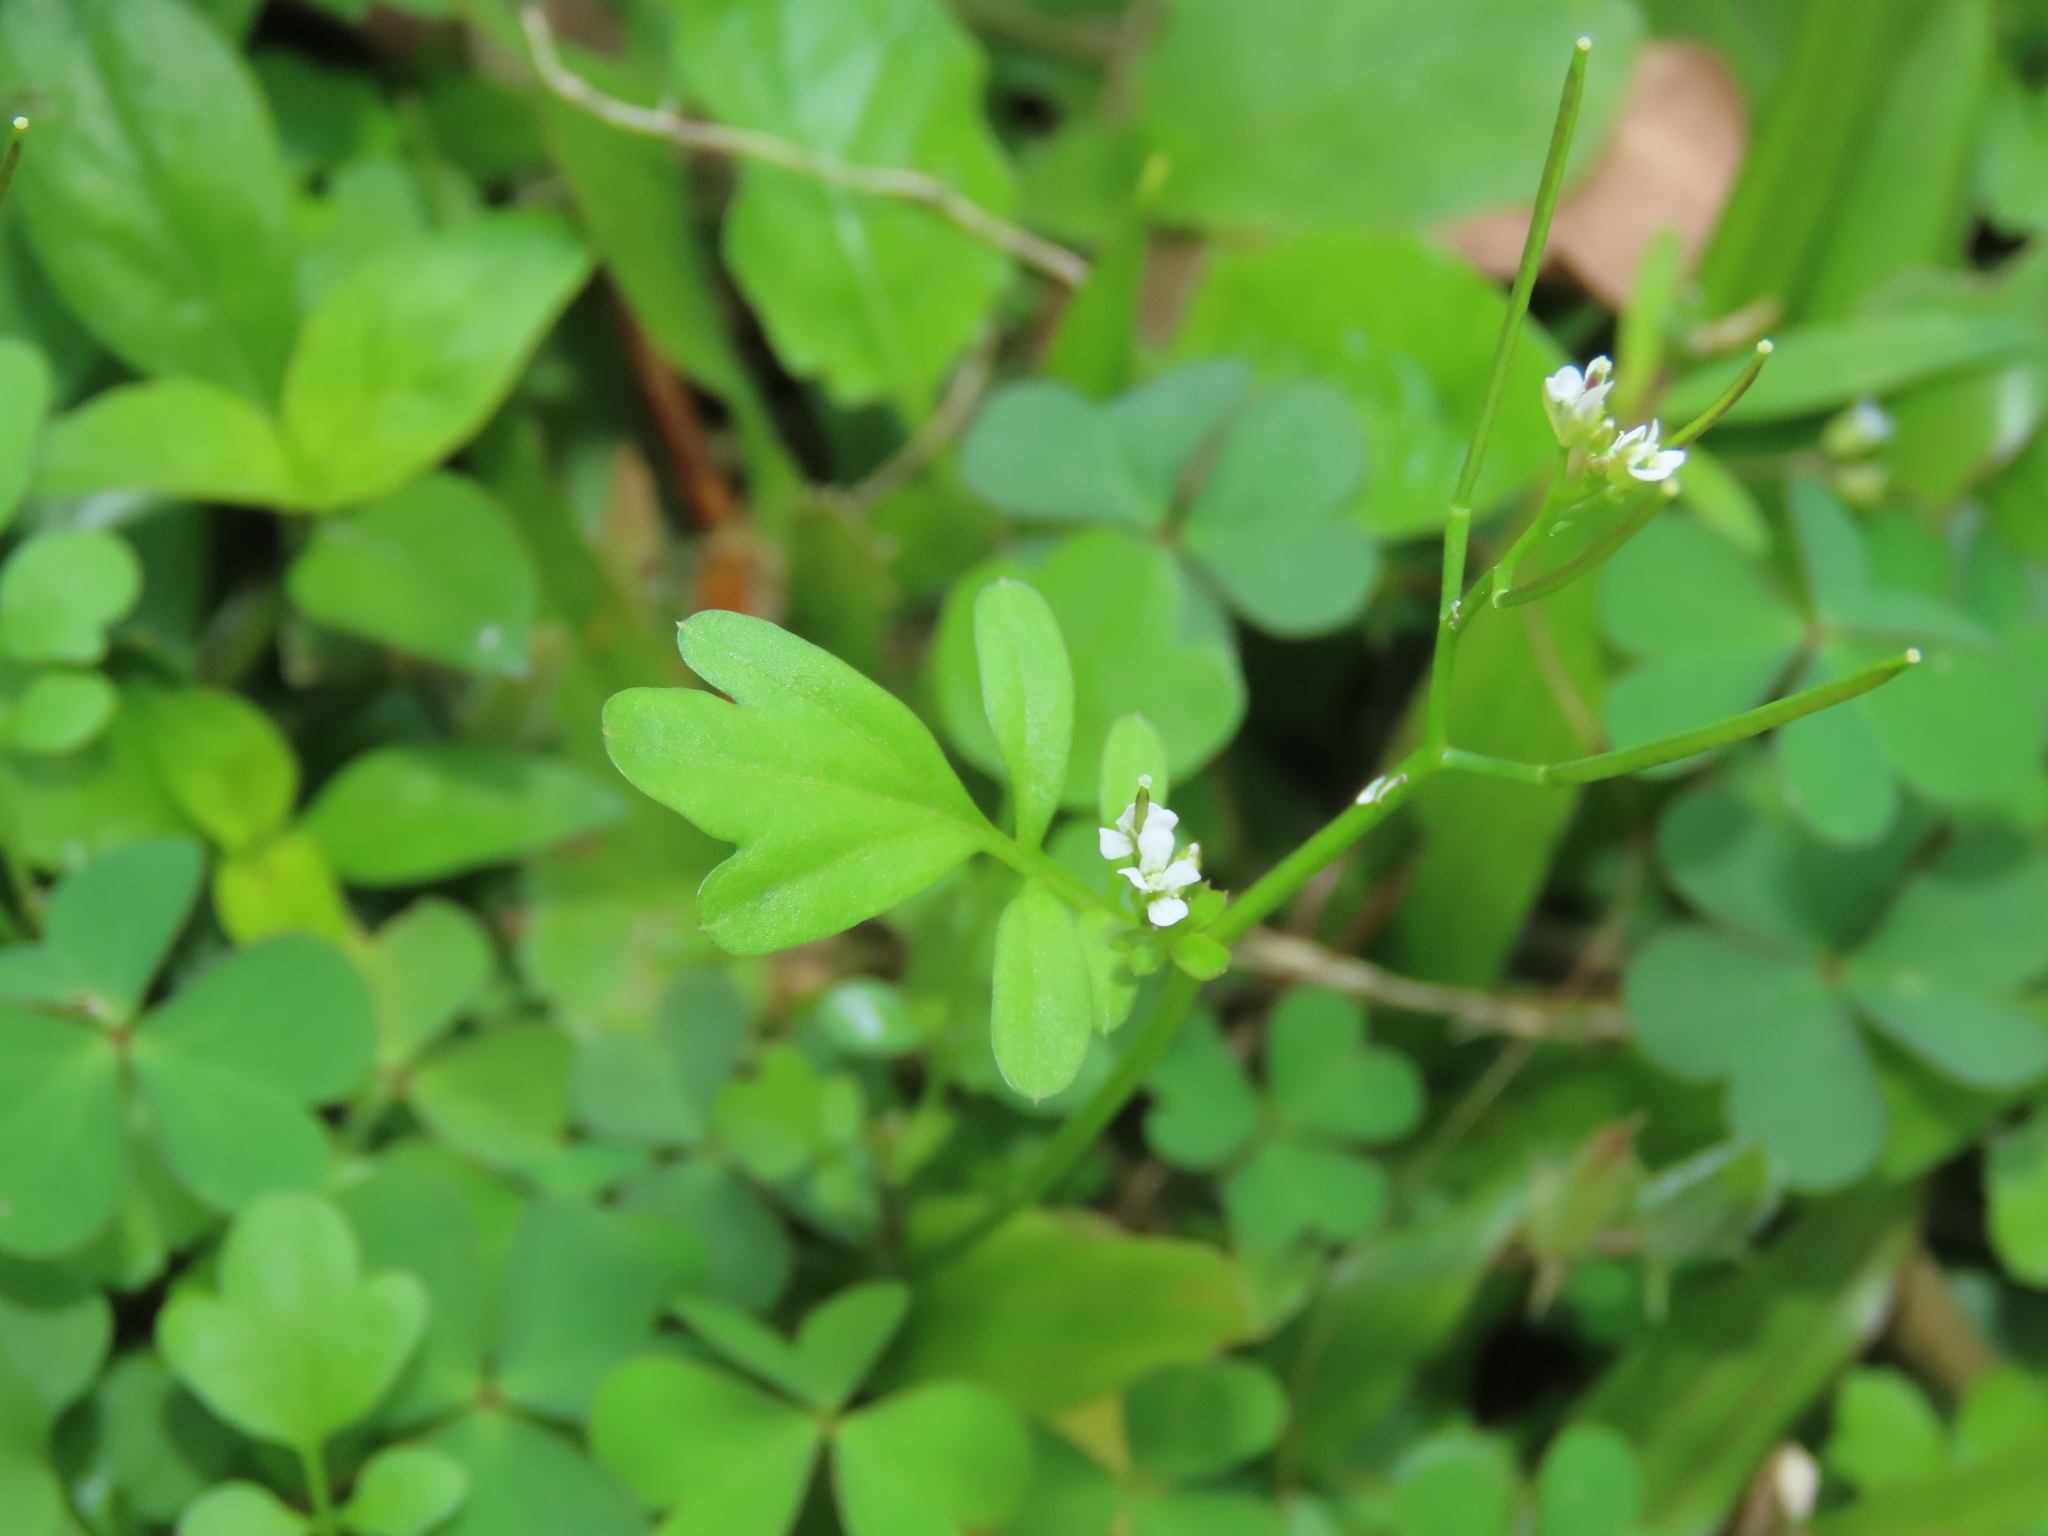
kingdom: Plantae
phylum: Tracheophyta
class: Magnoliopsida
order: Brassicales
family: Brassicaceae
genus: Cardamine
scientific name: Cardamine flexuosa
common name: Woodland bittercress
